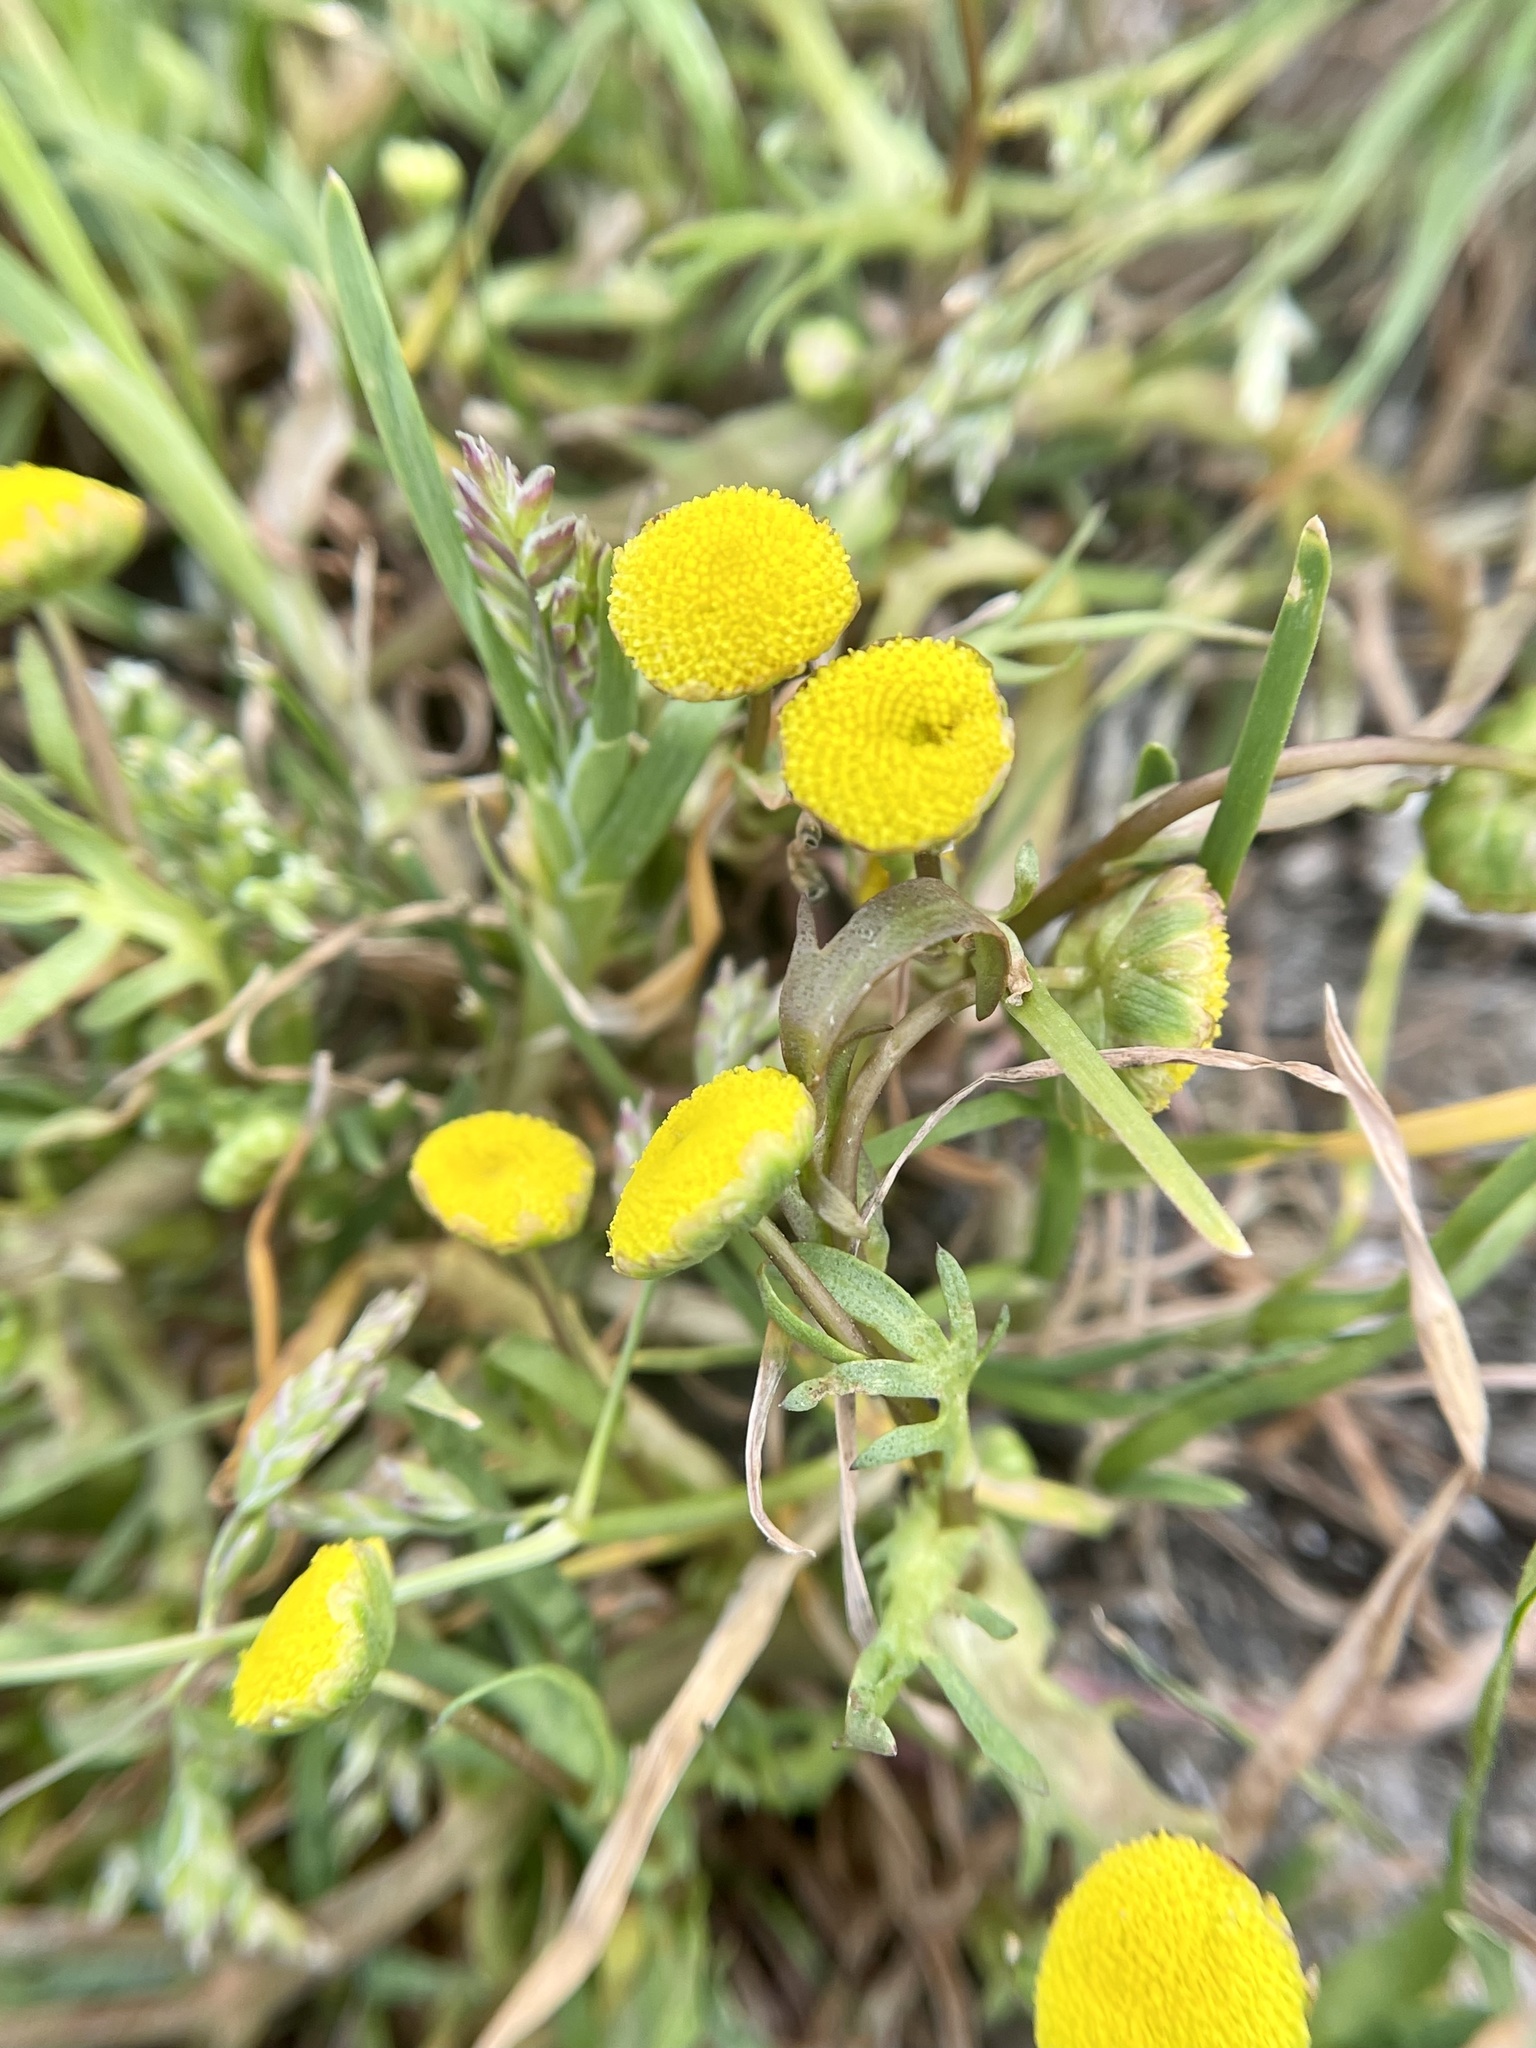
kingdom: Plantae
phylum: Tracheophyta
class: Magnoliopsida
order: Asterales
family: Asteraceae
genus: Cotula
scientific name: Cotula coronopifolia
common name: Buttonweed
